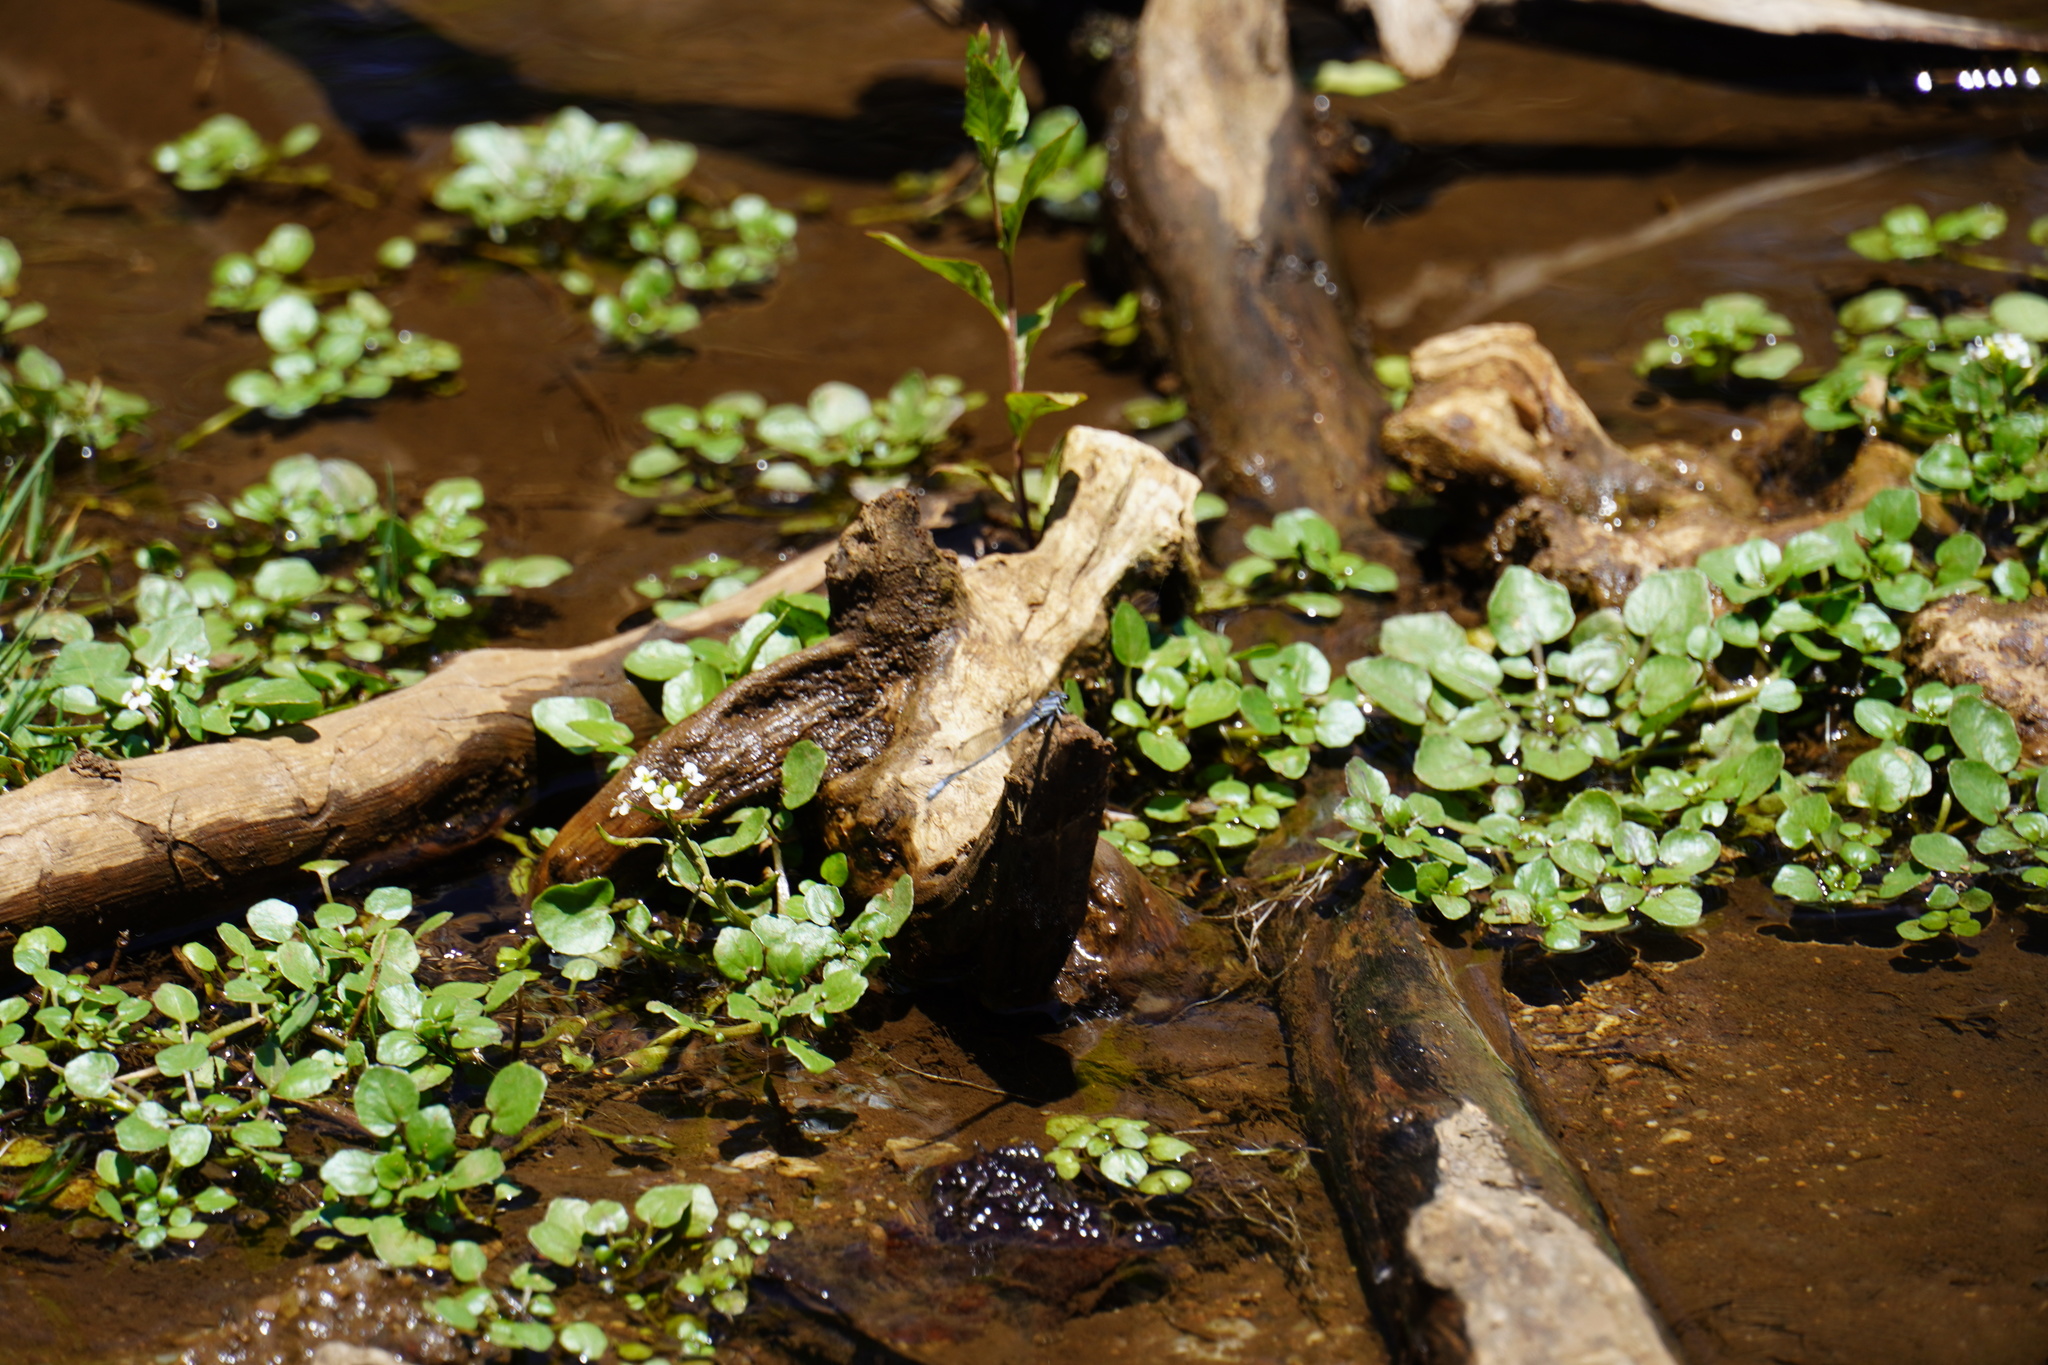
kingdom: Plantae
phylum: Tracheophyta
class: Magnoliopsida
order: Brassicales
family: Brassicaceae
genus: Nasturtium
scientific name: Nasturtium officinale
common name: Watercress
